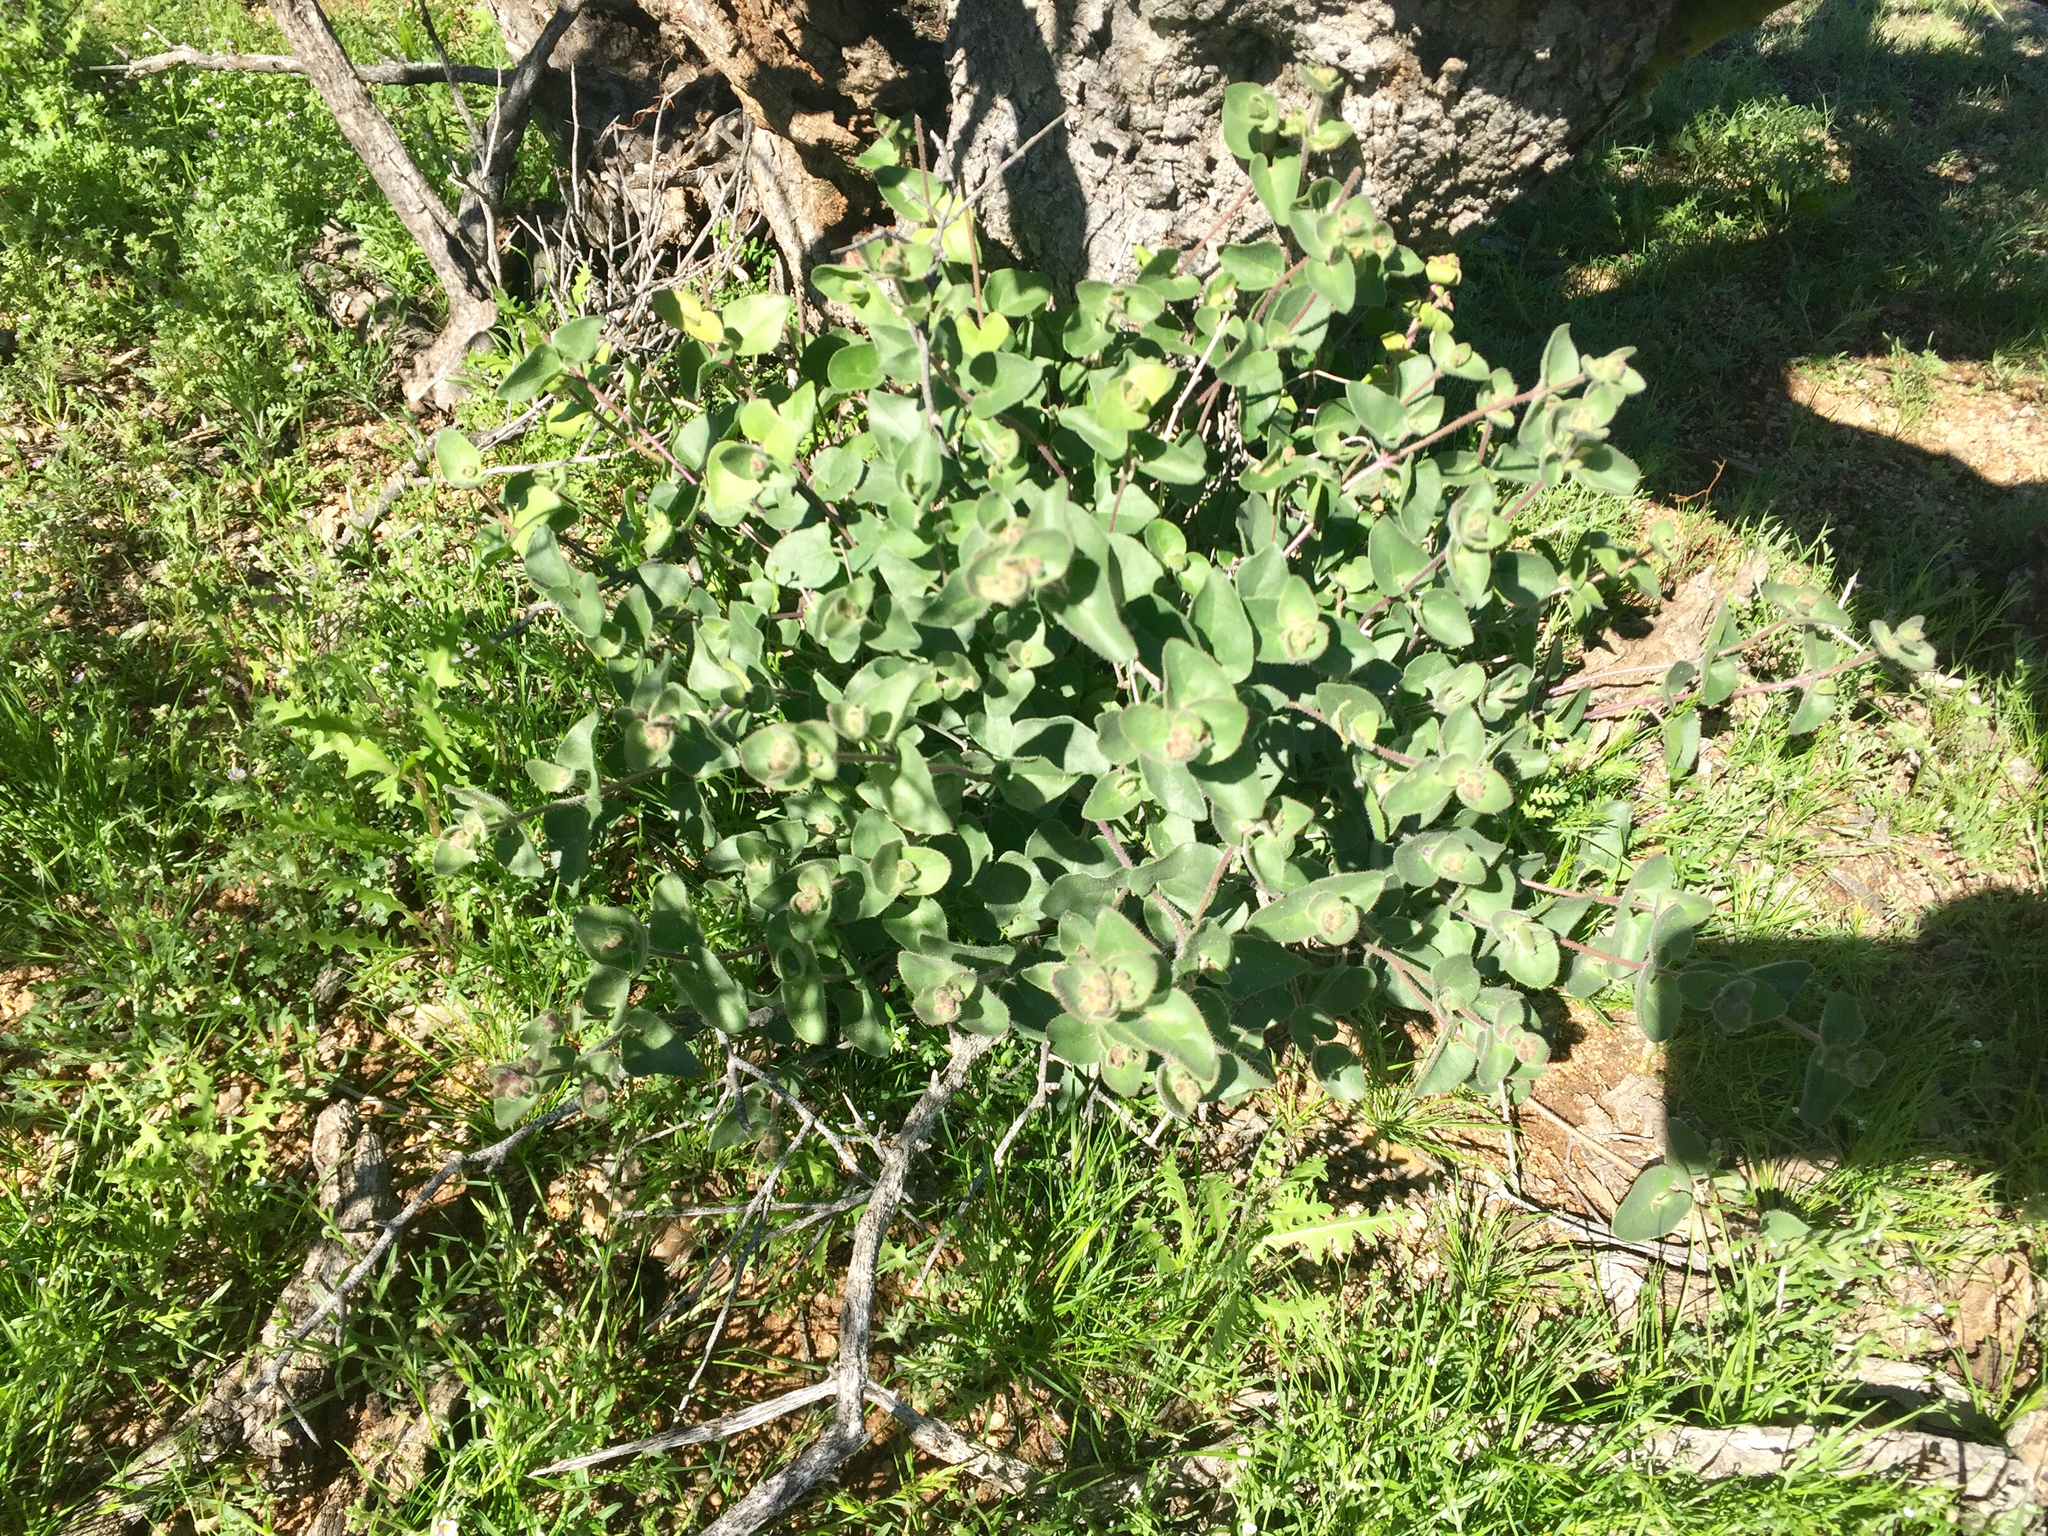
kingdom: Plantae
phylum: Tracheophyta
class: Magnoliopsida
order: Caryophyllales
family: Nyctaginaceae
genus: Mirabilis
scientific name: Mirabilis laevis
